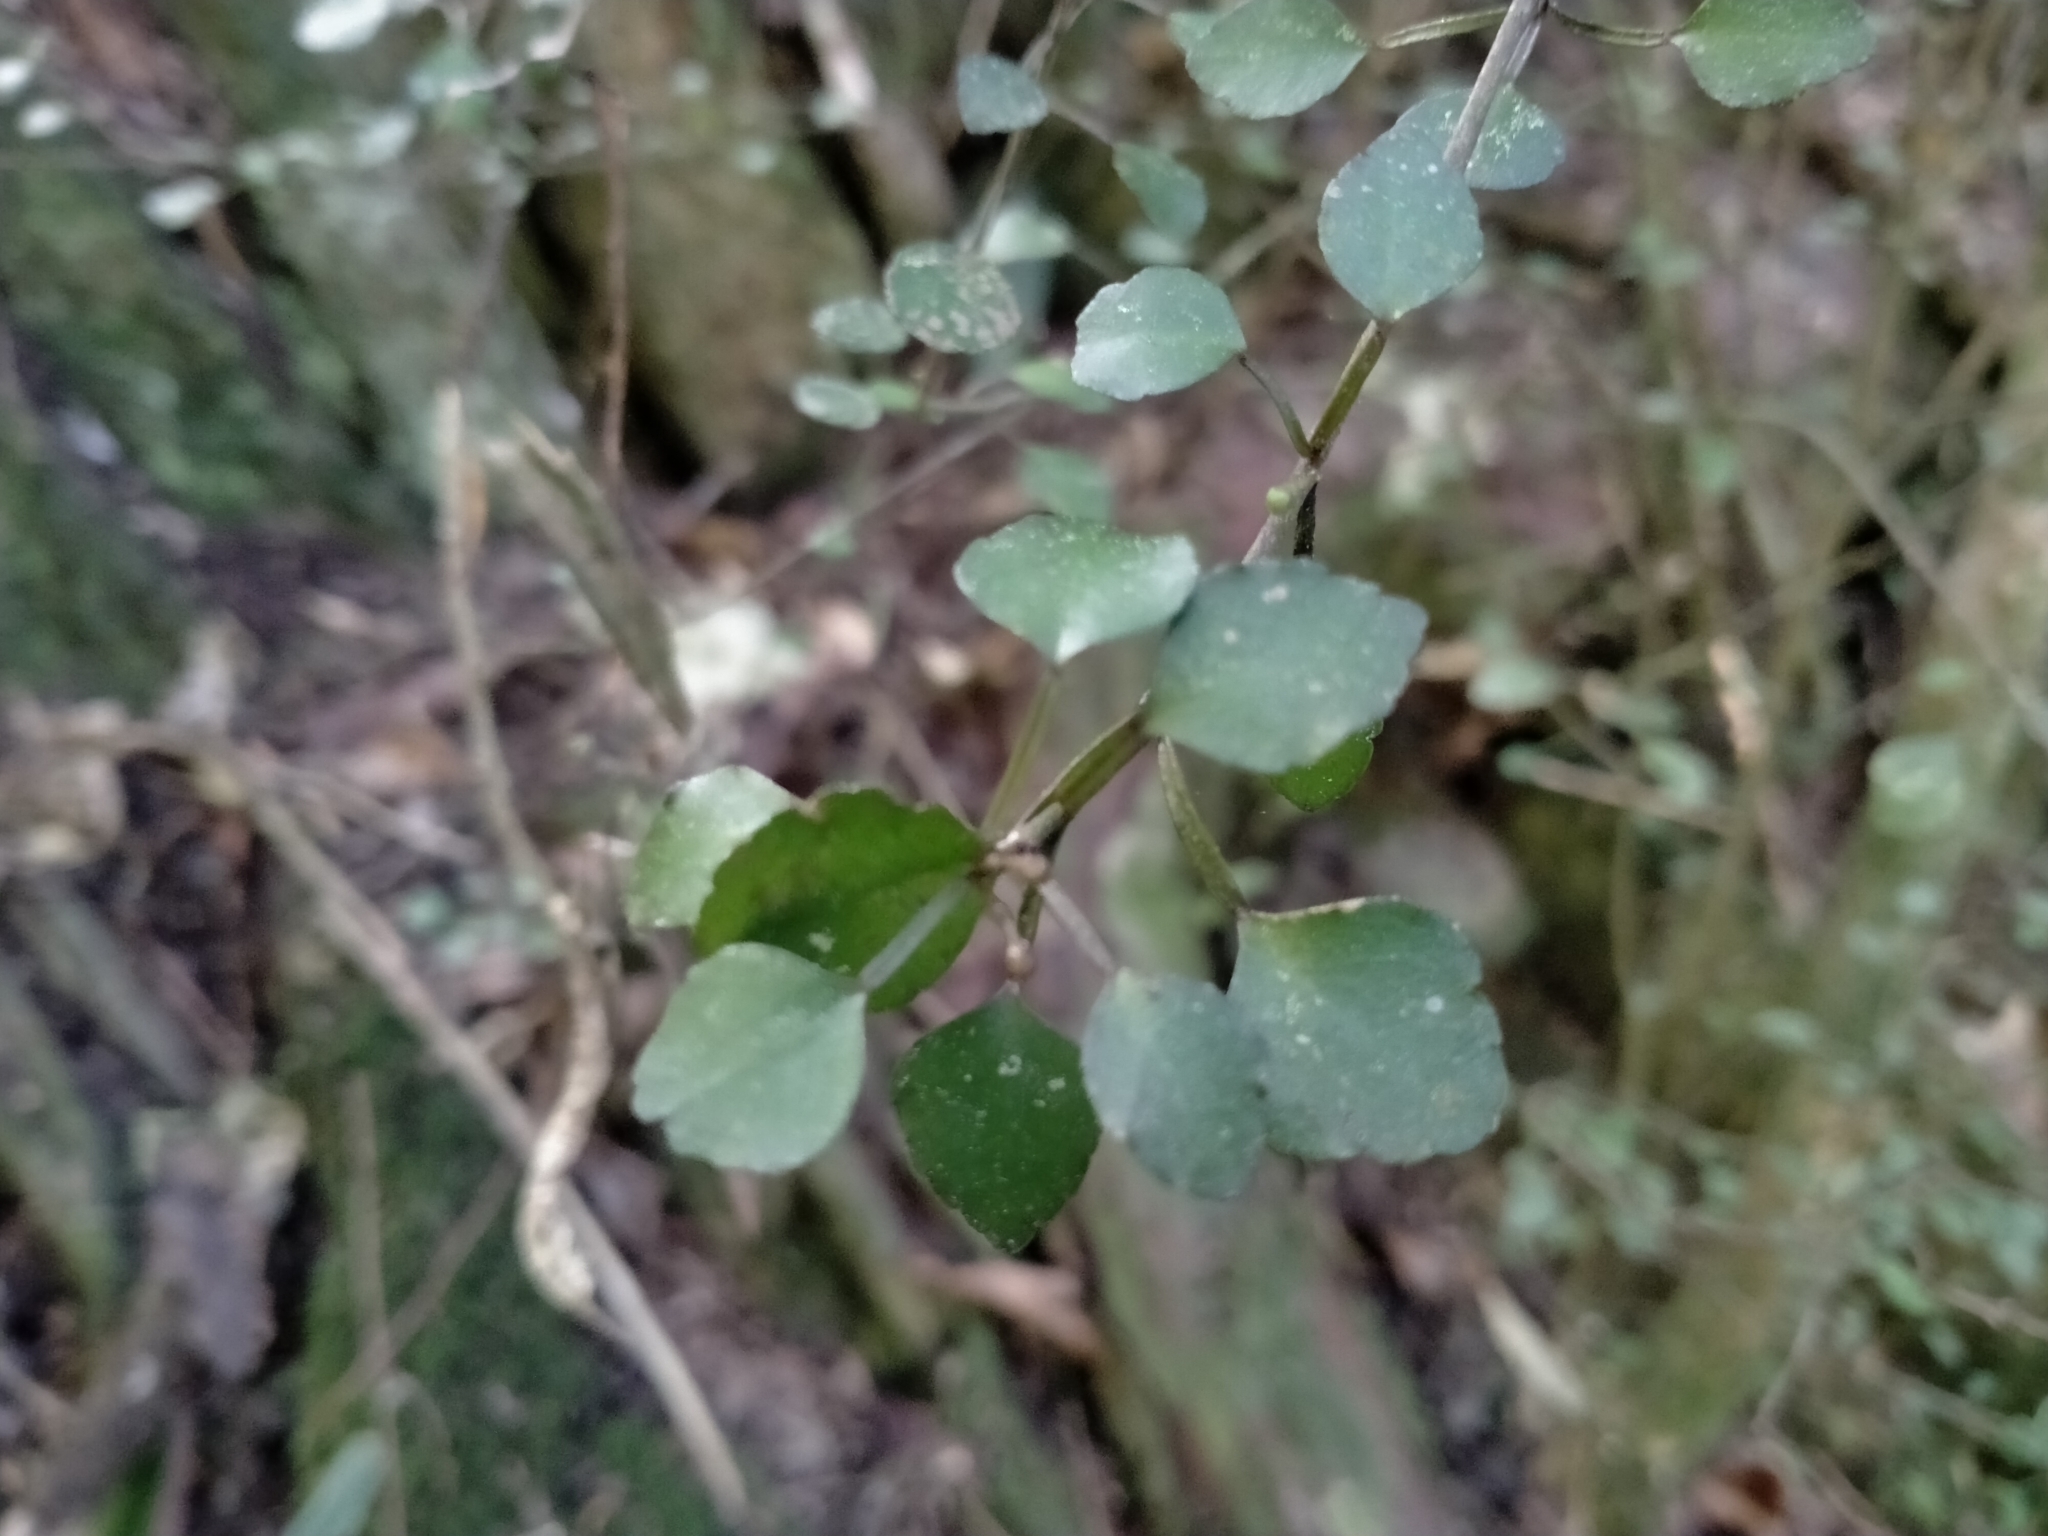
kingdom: Plantae
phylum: Tracheophyta
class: Magnoliopsida
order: Sapindales
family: Rutaceae
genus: Melicope
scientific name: Melicope simplex
